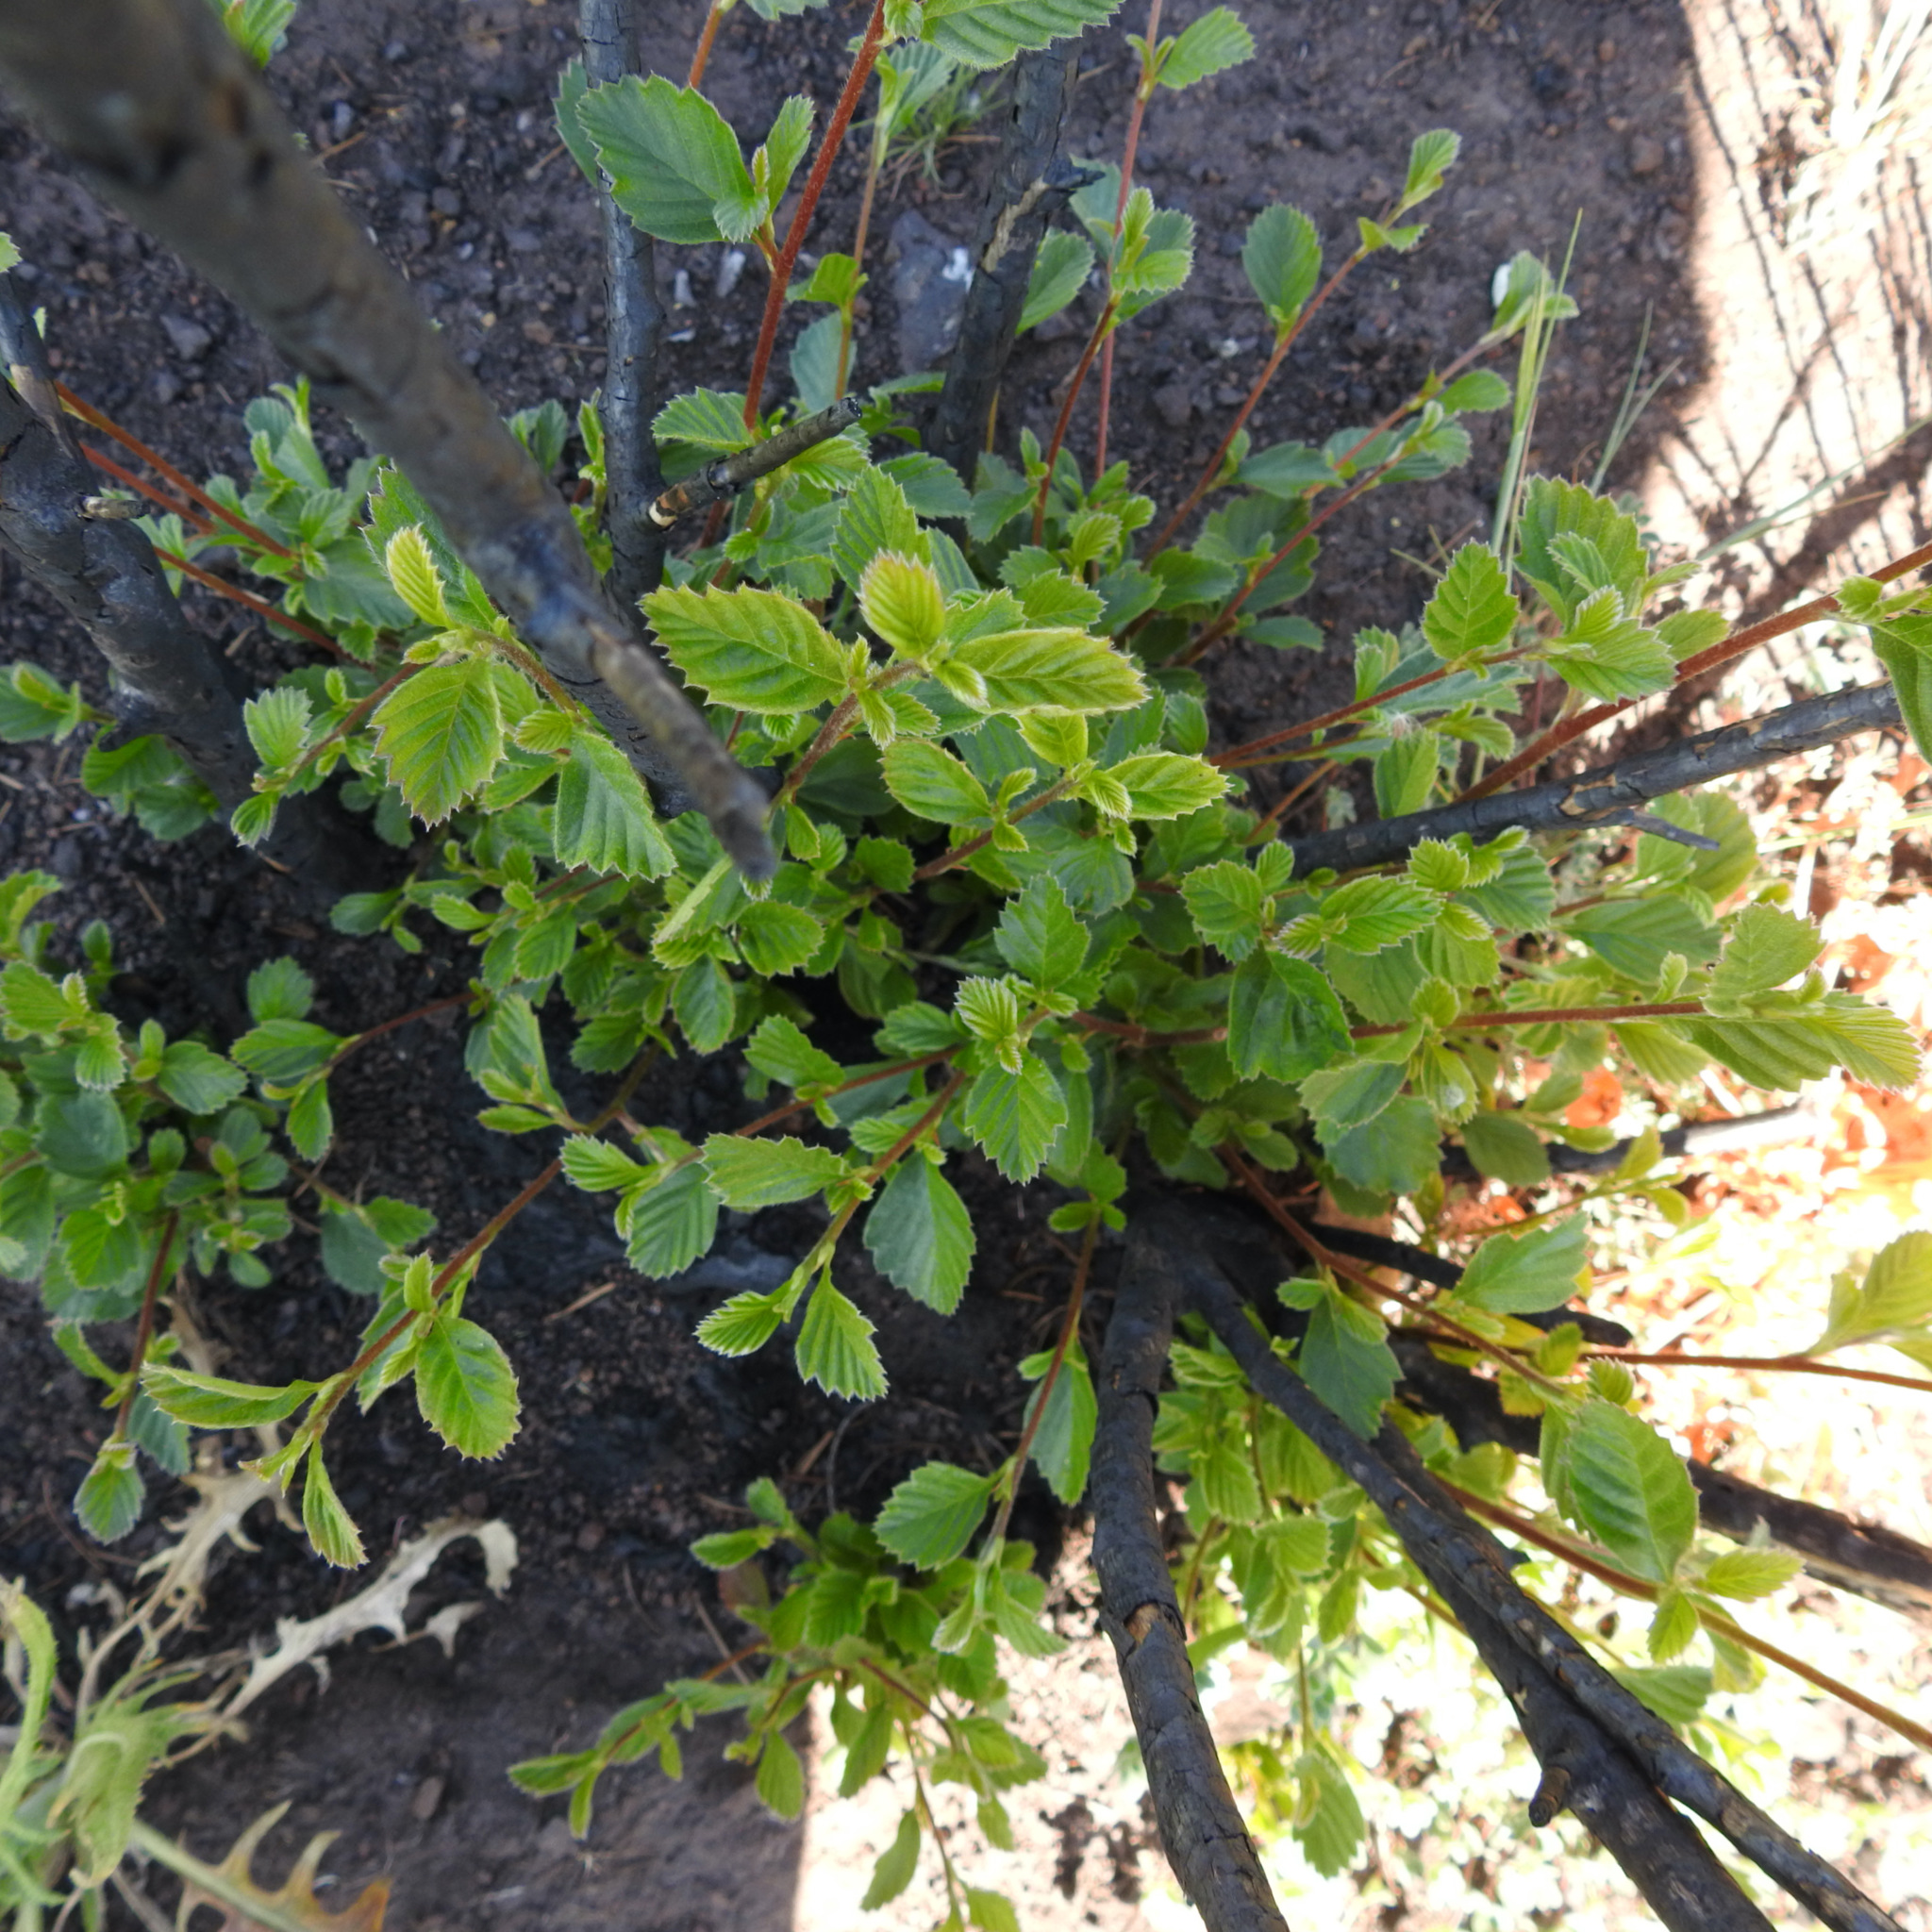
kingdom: Plantae
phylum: Tracheophyta
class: Magnoliopsida
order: Rosales
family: Rosaceae
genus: Cercocarpus
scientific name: Cercocarpus betuloides
